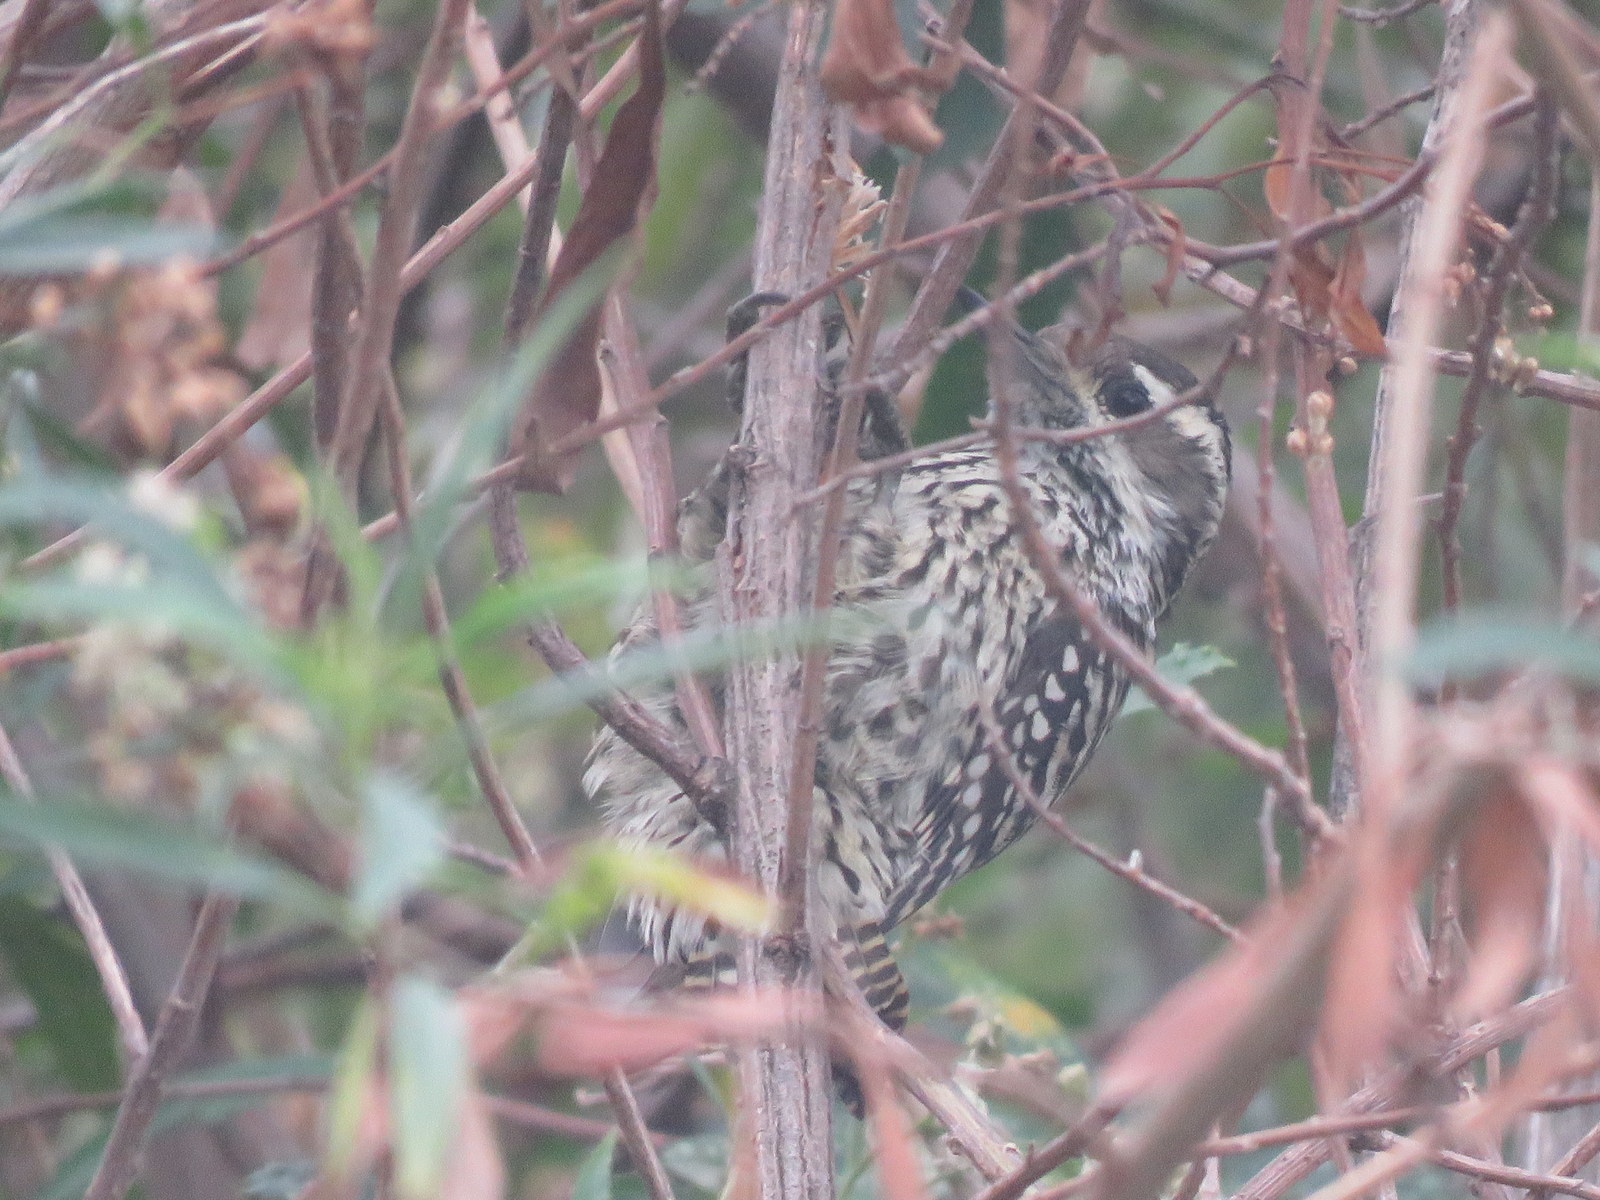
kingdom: Animalia
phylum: Chordata
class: Aves
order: Piciformes
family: Picidae
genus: Veniliornis
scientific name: Veniliornis mixtus
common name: Checkered woodpecker
